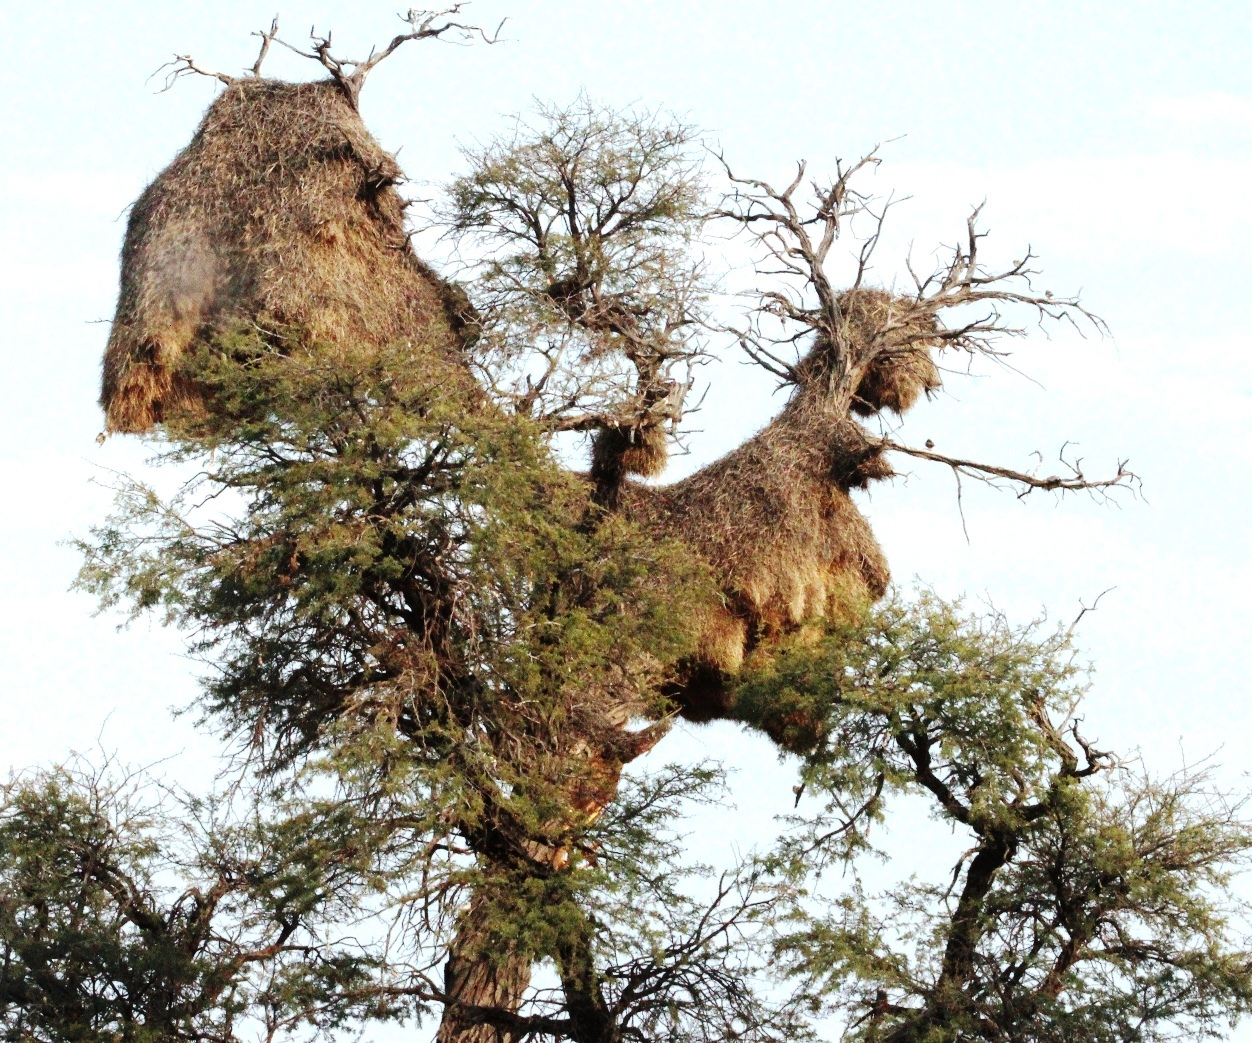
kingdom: Animalia
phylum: Chordata
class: Aves
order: Passeriformes
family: Passeridae
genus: Philetairus
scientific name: Philetairus socius
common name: Sociable weaver
